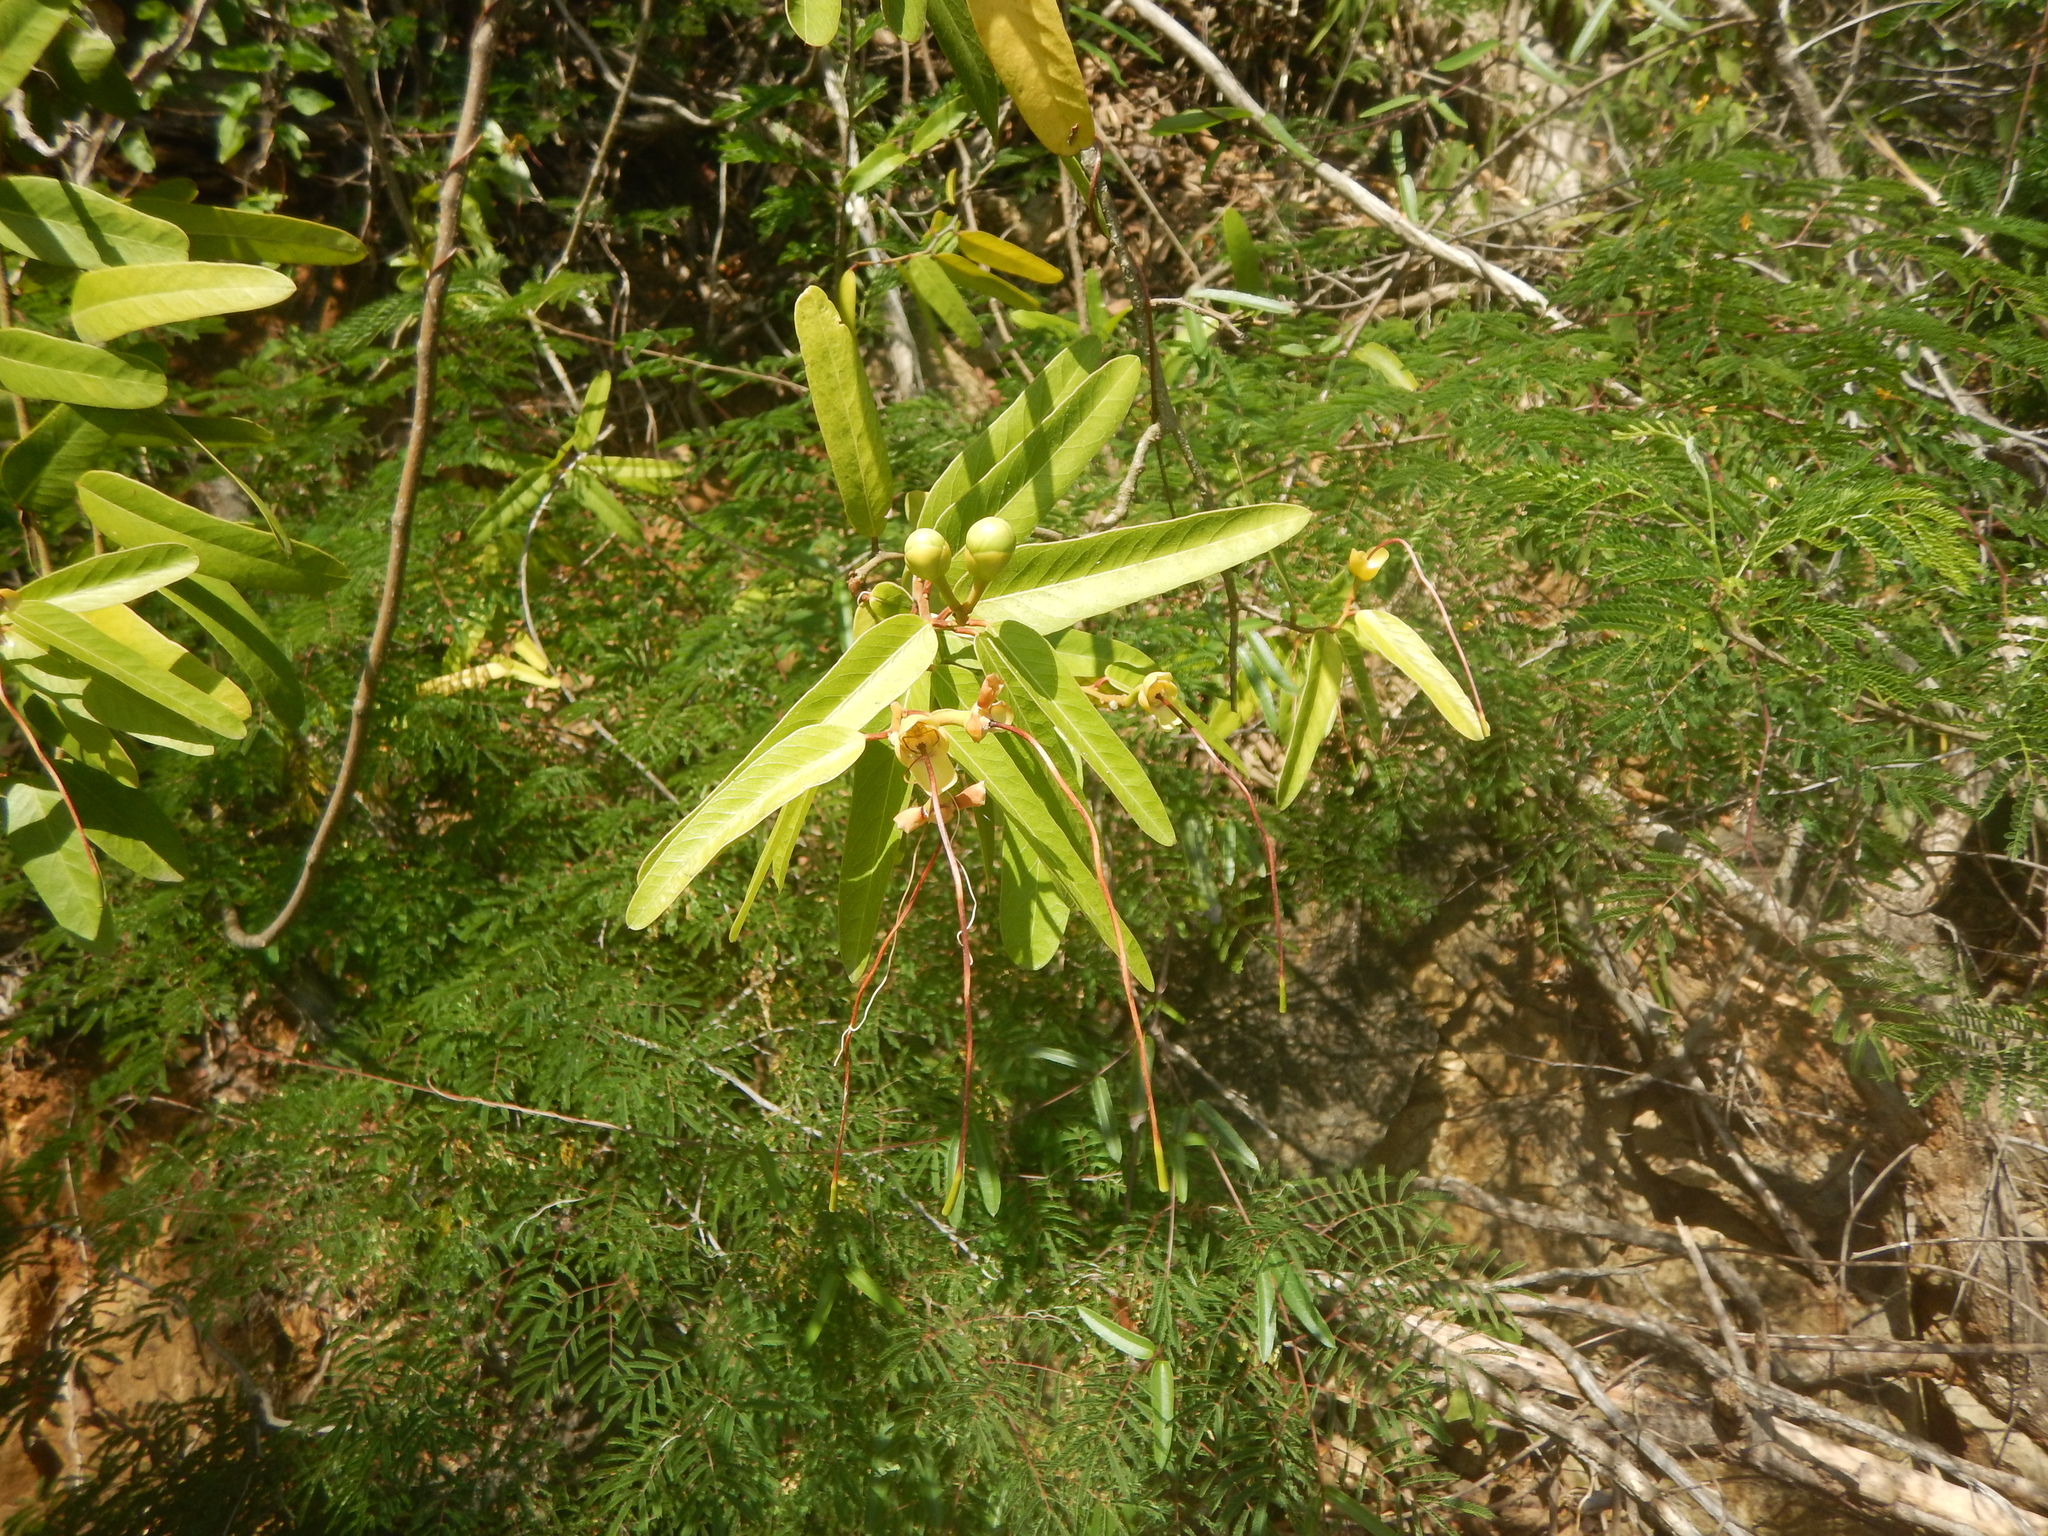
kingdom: Plantae
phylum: Tracheophyta
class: Magnoliopsida
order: Brassicales
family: Capparaceae
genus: Cynophalla
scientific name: Cynophalla flexuosa
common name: Capertree
